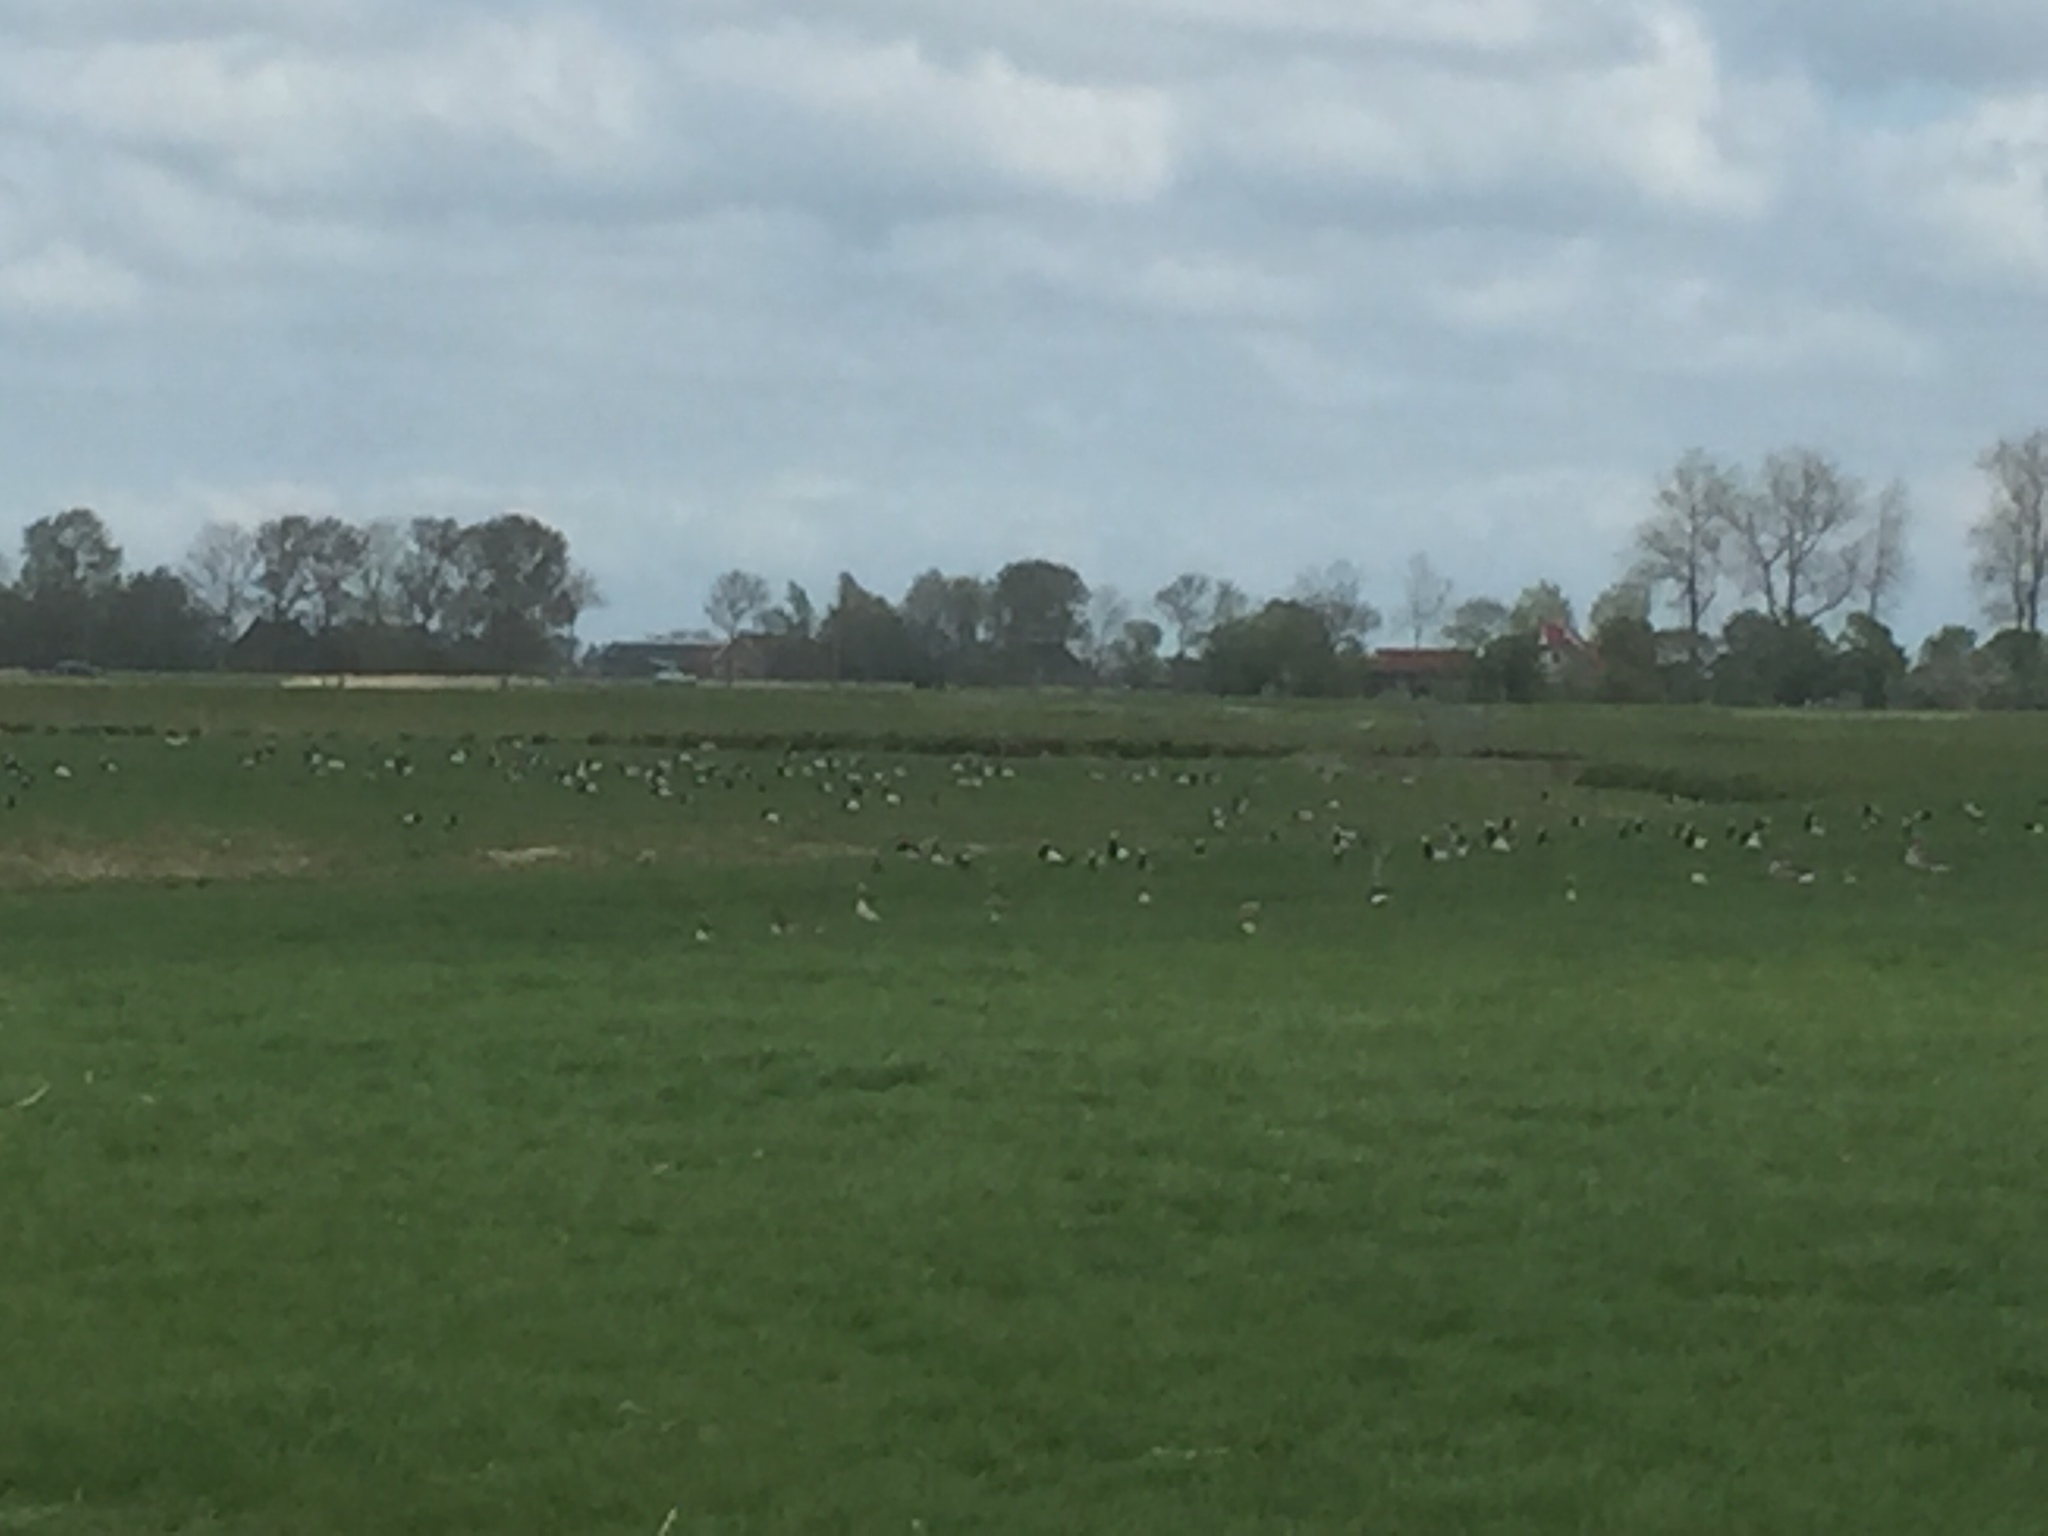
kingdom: Animalia
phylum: Chordata
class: Aves
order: Anseriformes
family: Anatidae
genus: Branta
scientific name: Branta leucopsis
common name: Barnacle goose
